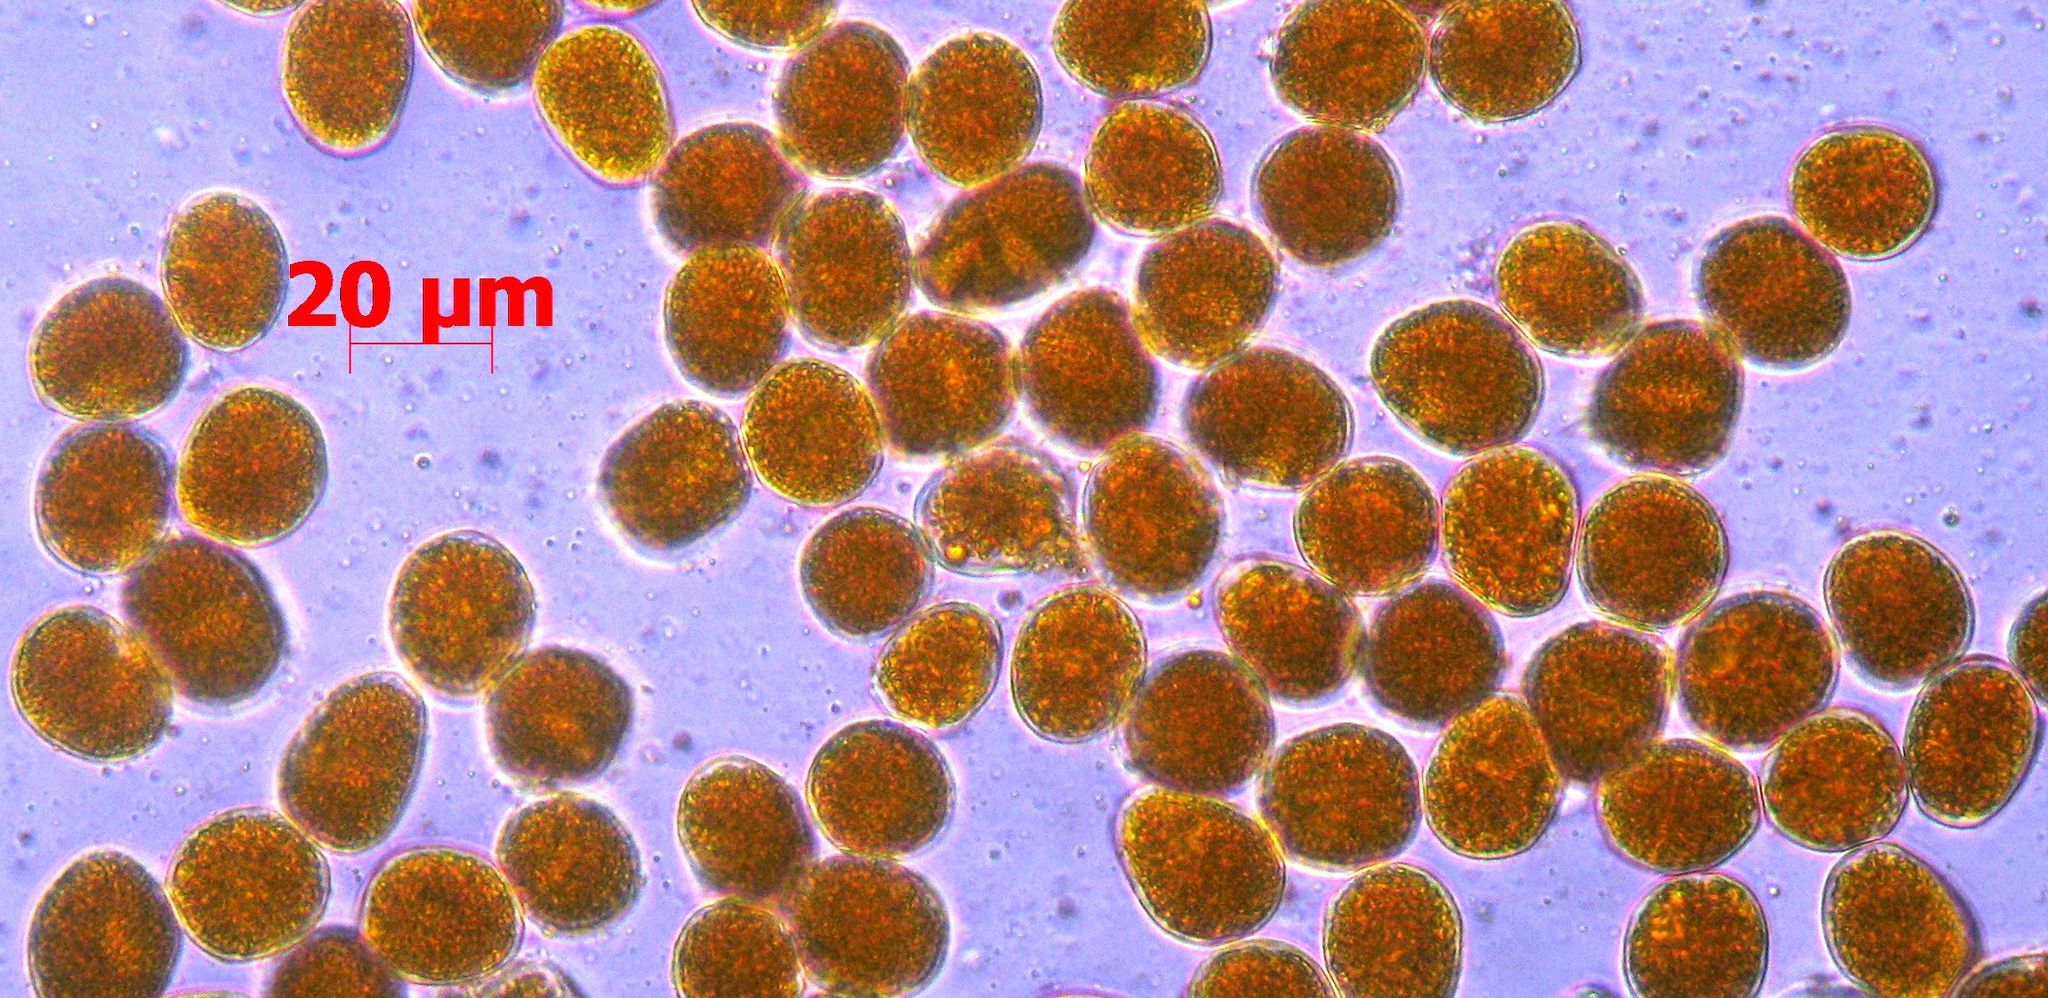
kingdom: Fungi
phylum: Basidiomycota
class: Pucciniomycetes
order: Pucciniales
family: Pucciniaceae
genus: Uromyces
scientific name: Uromyces sellierae
